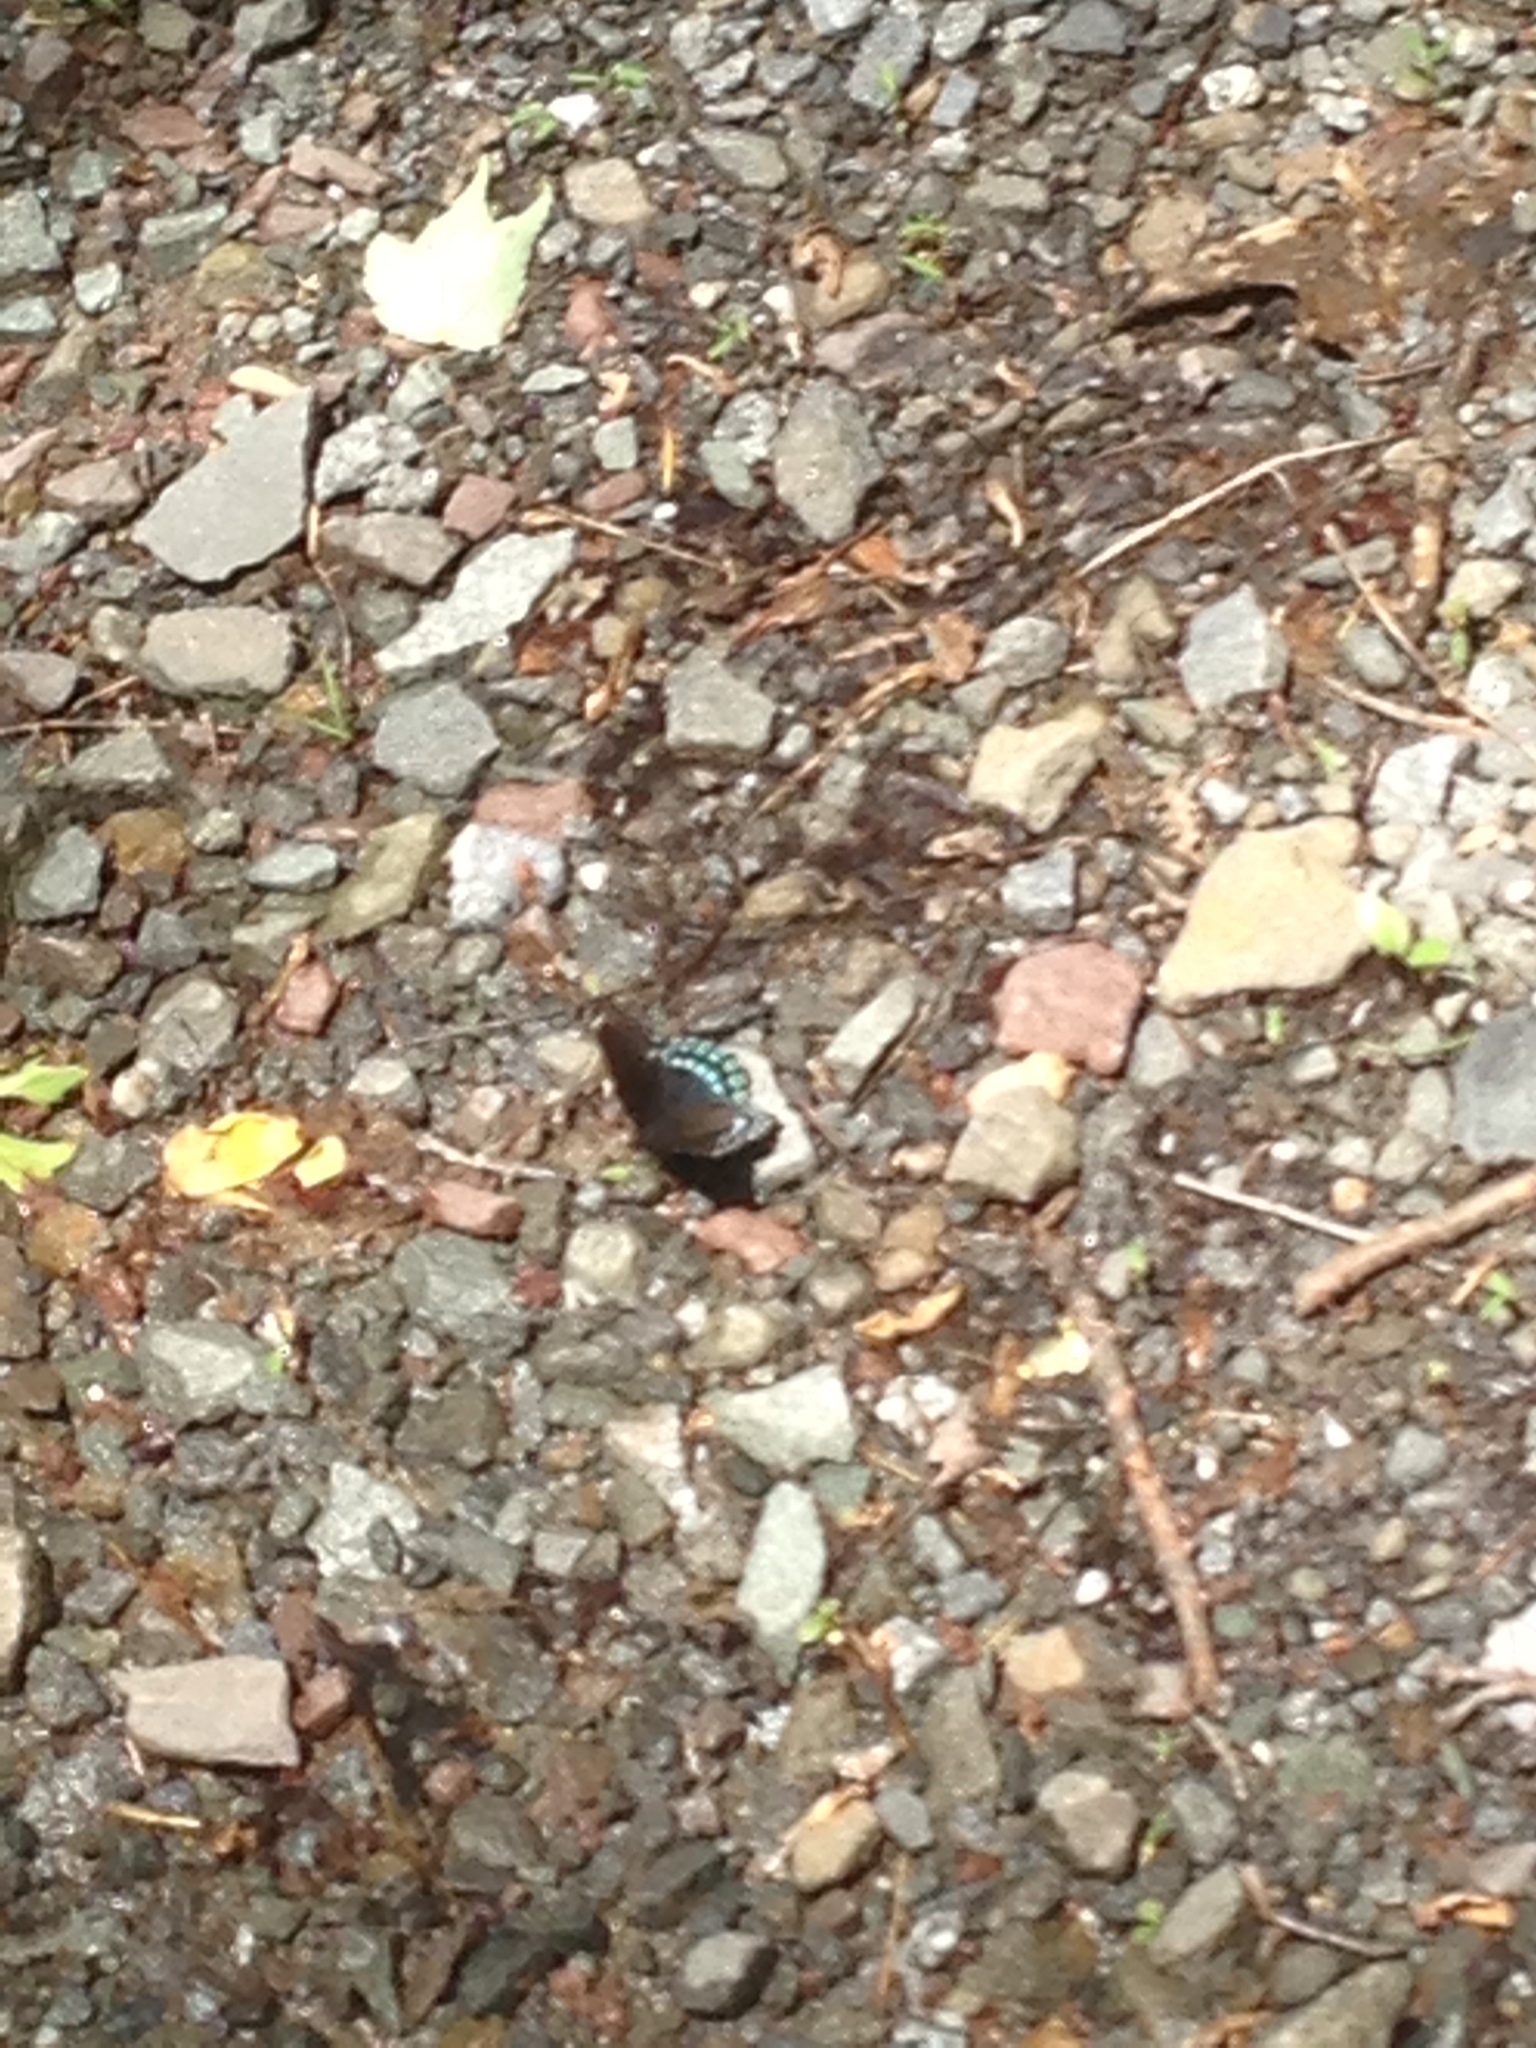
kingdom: Animalia
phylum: Arthropoda
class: Insecta
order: Lepidoptera
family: Nymphalidae
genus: Limenitis
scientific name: Limenitis astyanax
